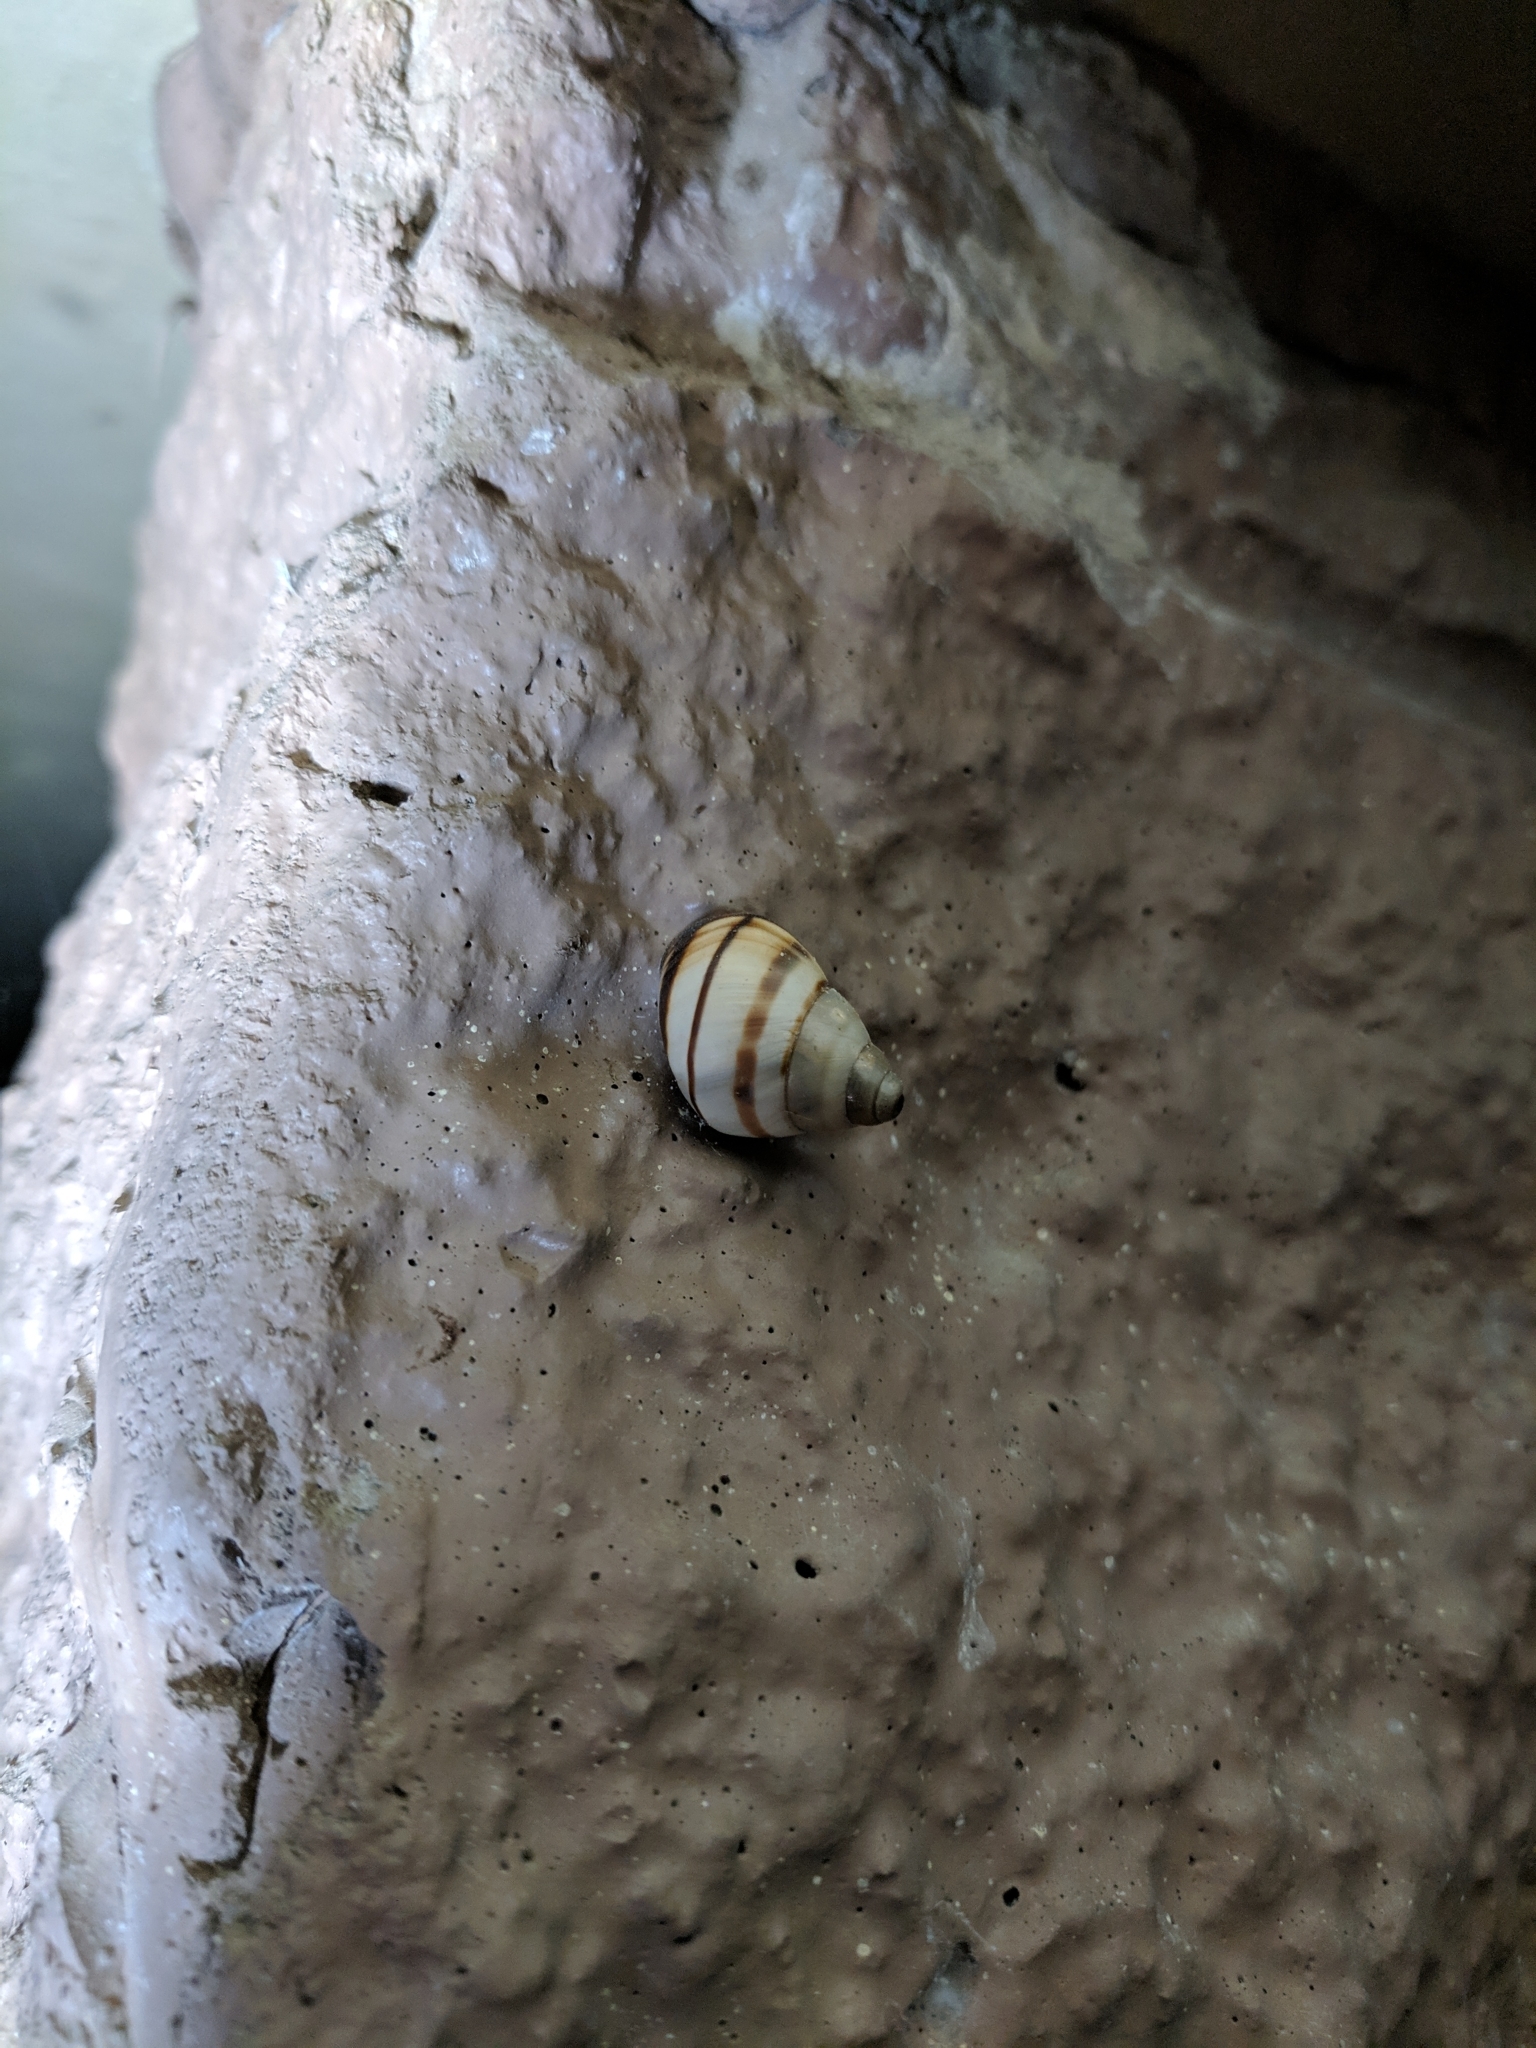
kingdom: Animalia
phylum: Mollusca
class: Gastropoda
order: Stylommatophora
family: Orthalicidae
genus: Orthalicus
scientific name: Orthalicus floridensis
